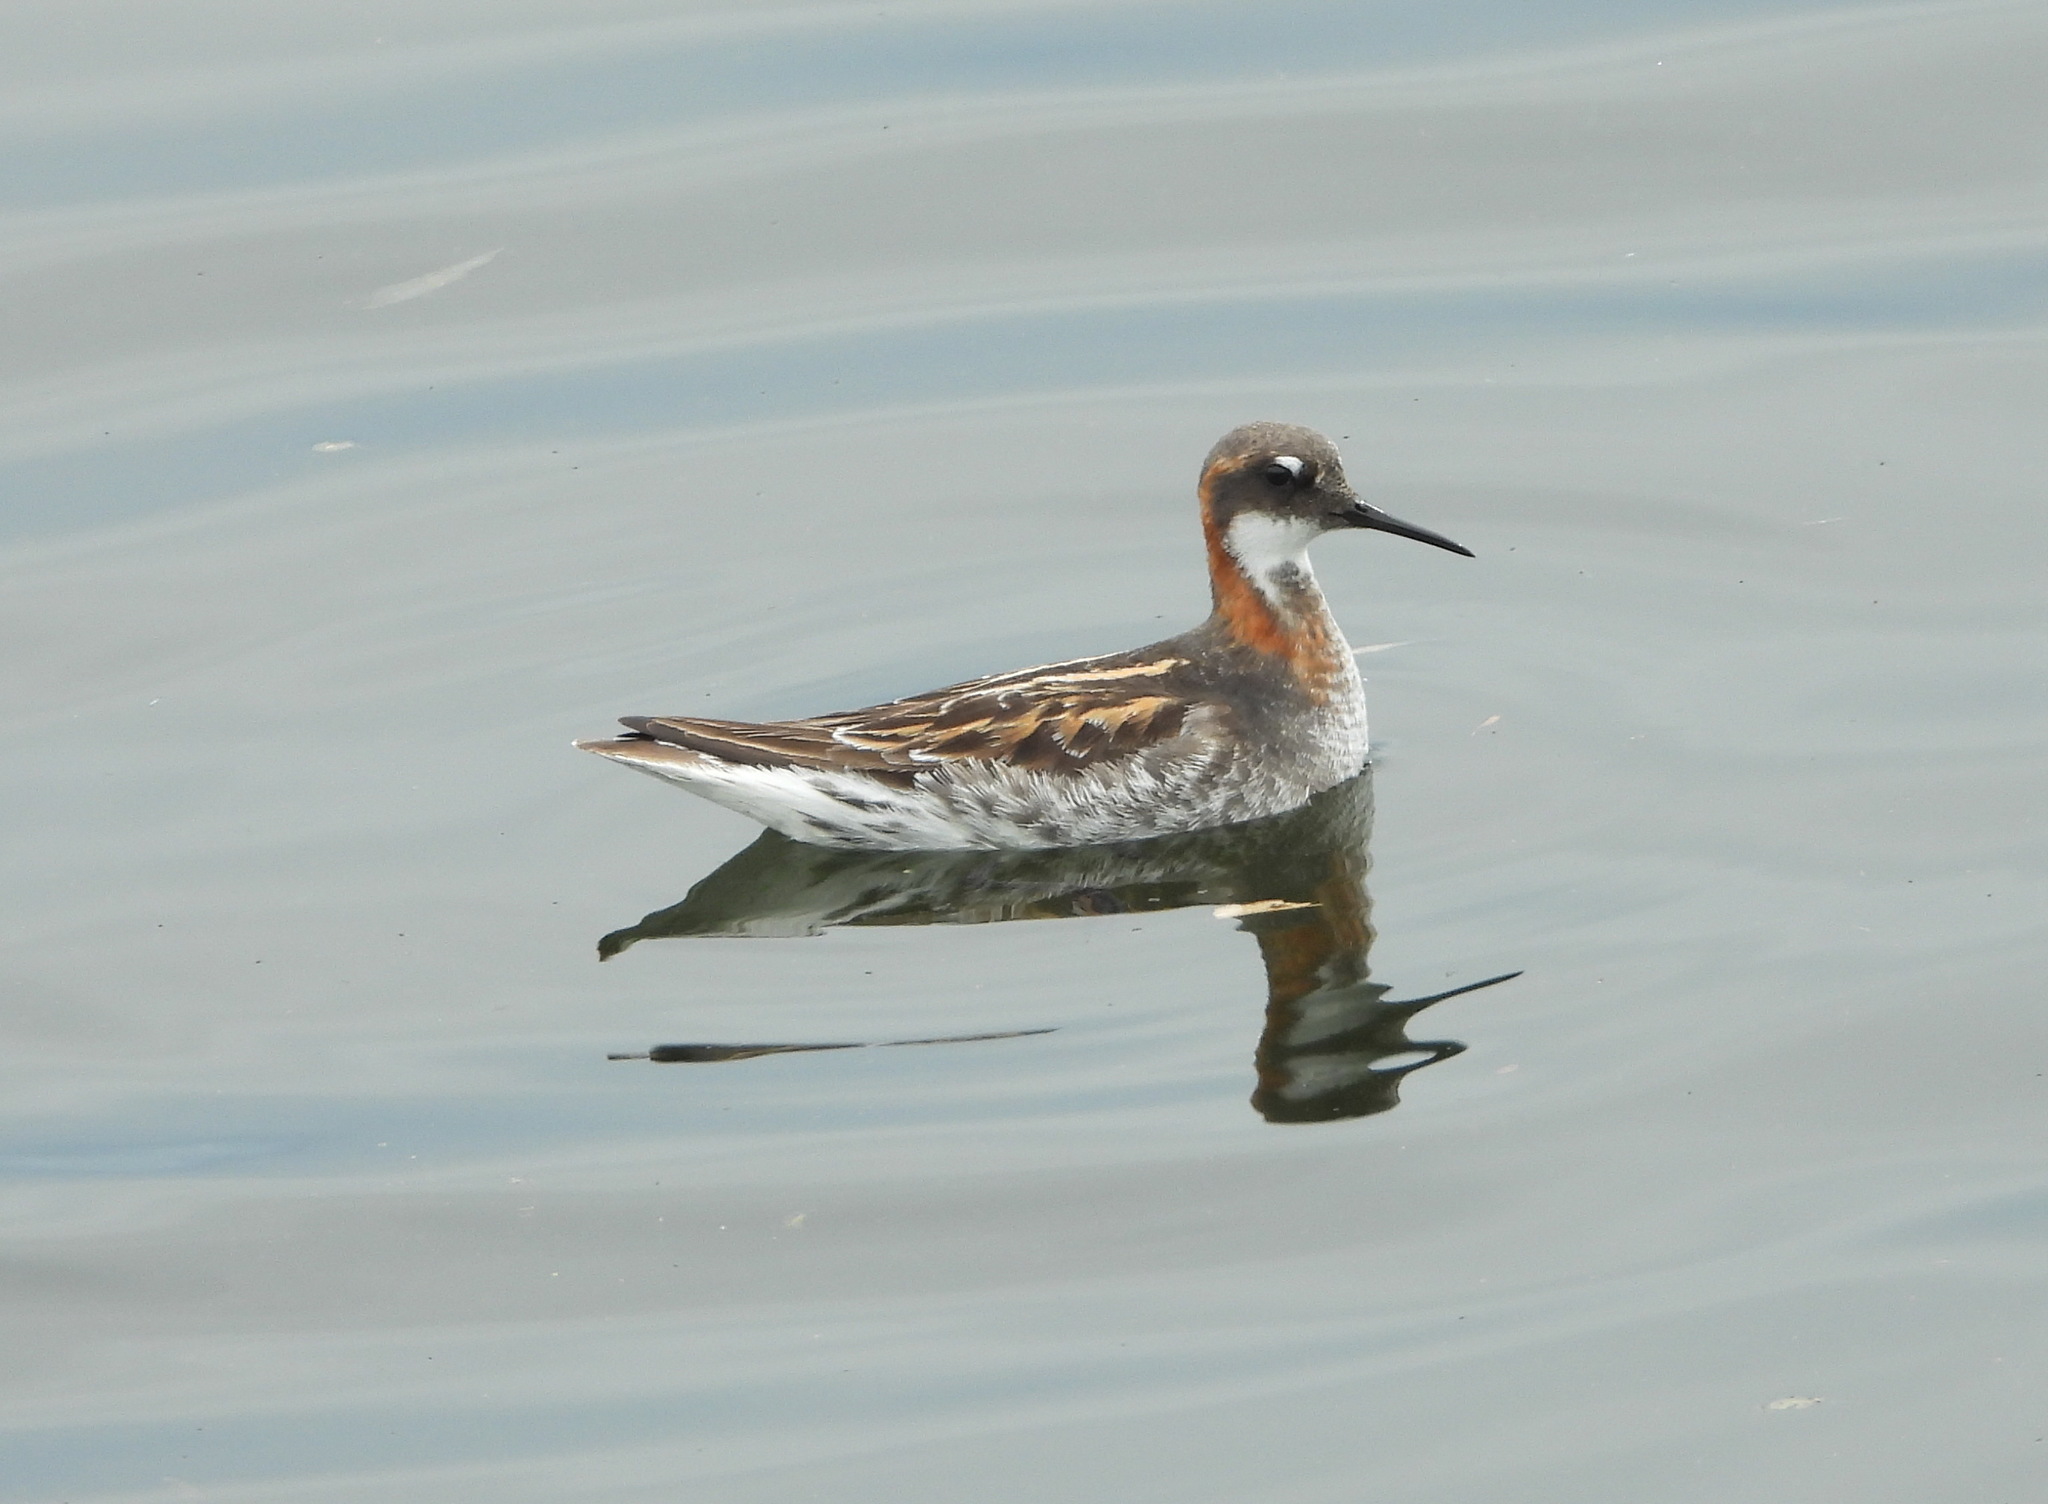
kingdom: Animalia
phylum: Chordata
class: Aves
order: Charadriiformes
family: Scolopacidae
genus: Phalaropus
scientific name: Phalaropus lobatus
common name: Red-necked phalarope
